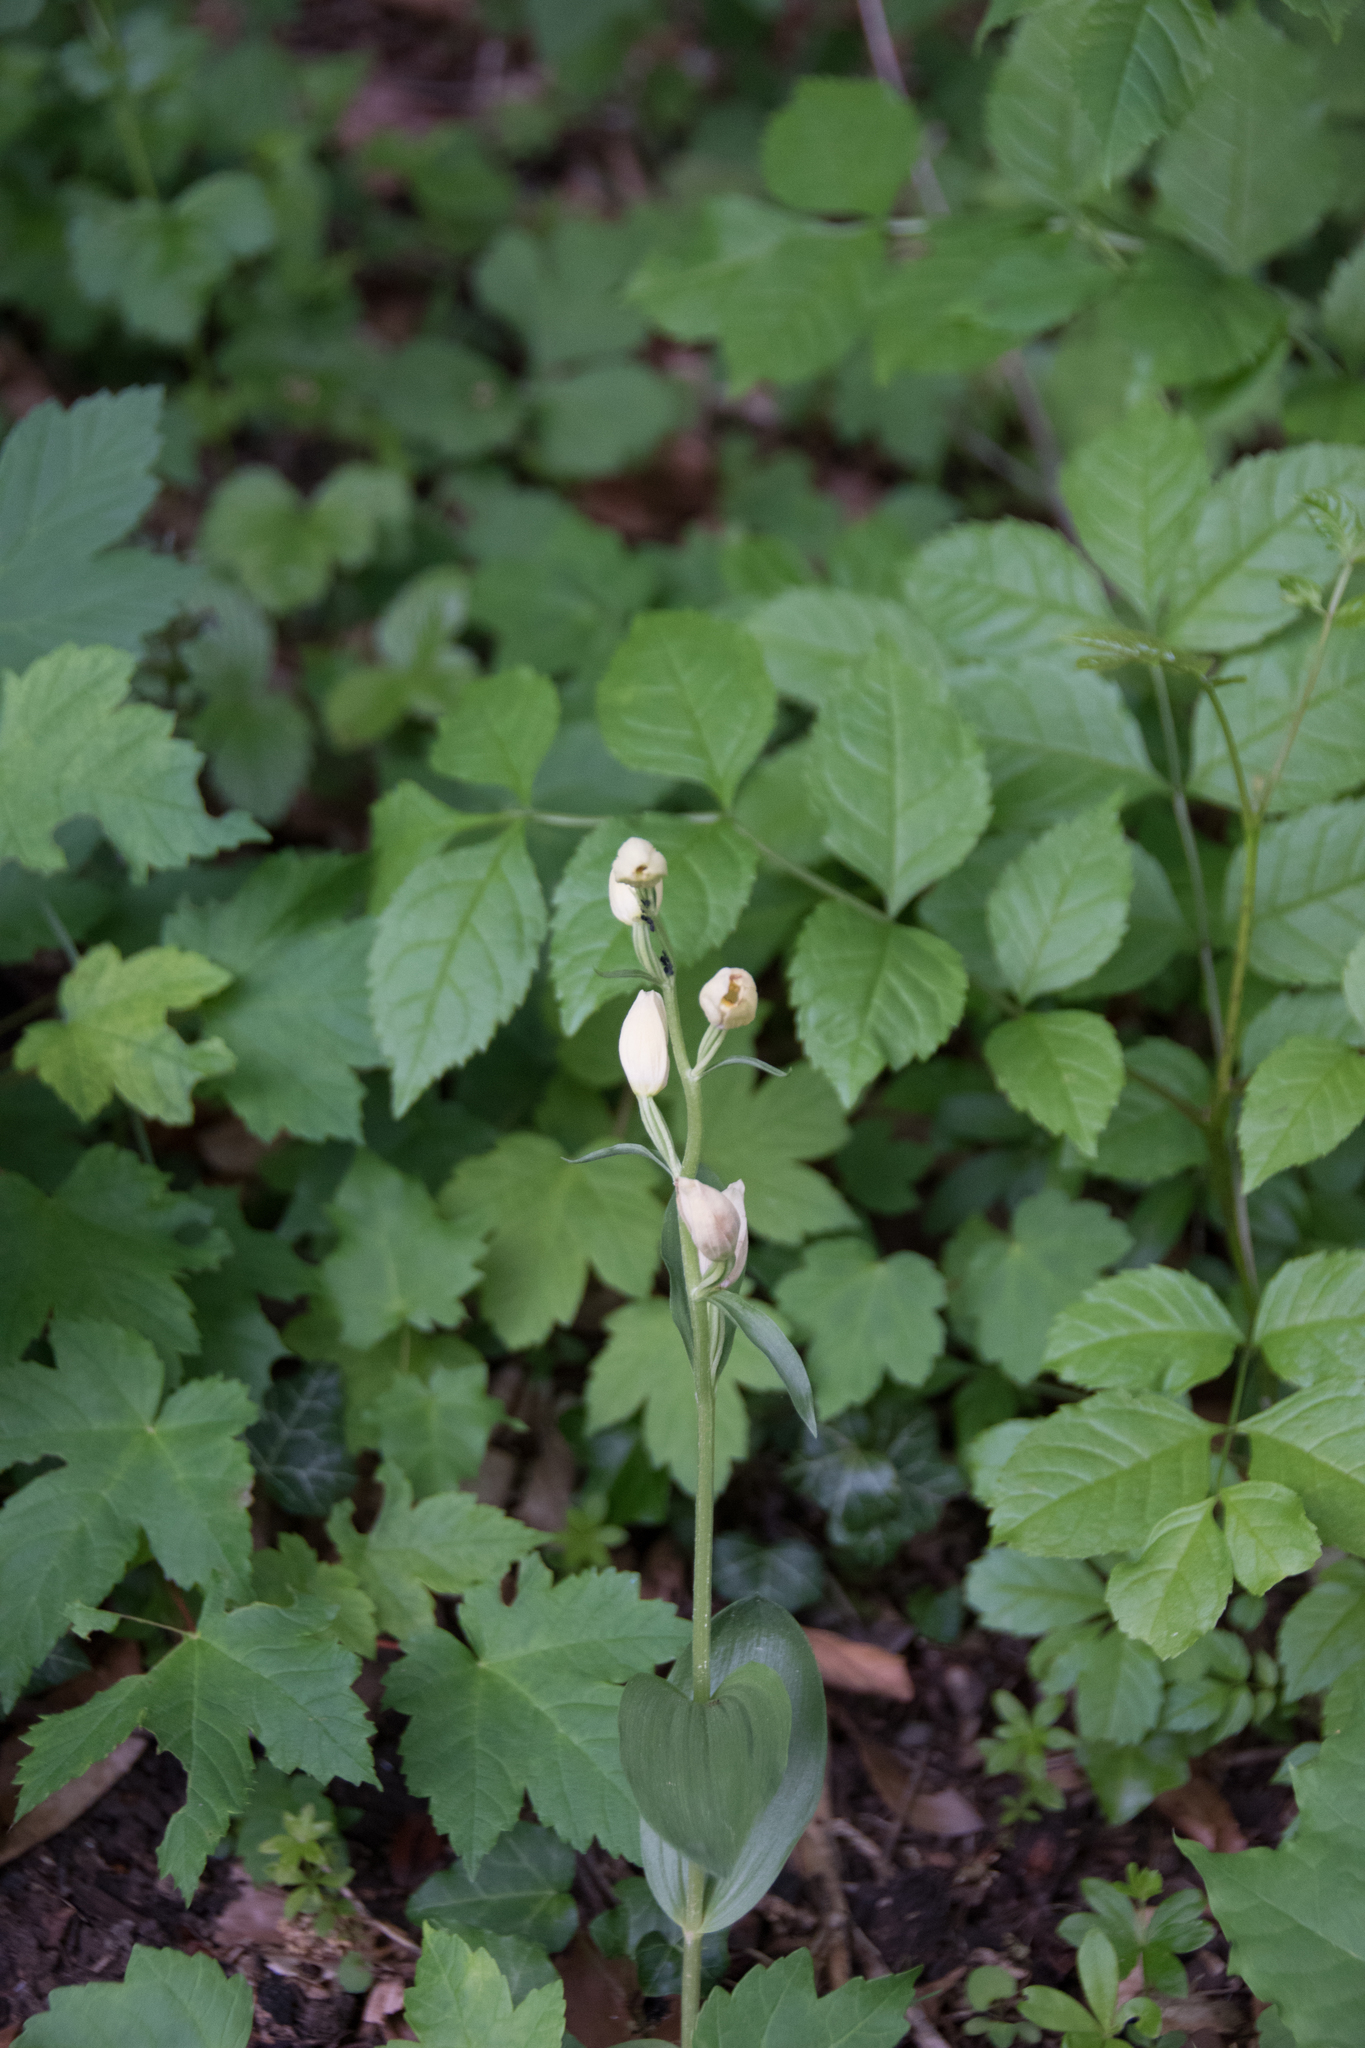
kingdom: Plantae
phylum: Tracheophyta
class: Liliopsida
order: Asparagales
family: Orchidaceae
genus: Cephalanthera
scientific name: Cephalanthera damasonium
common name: White helleborine
